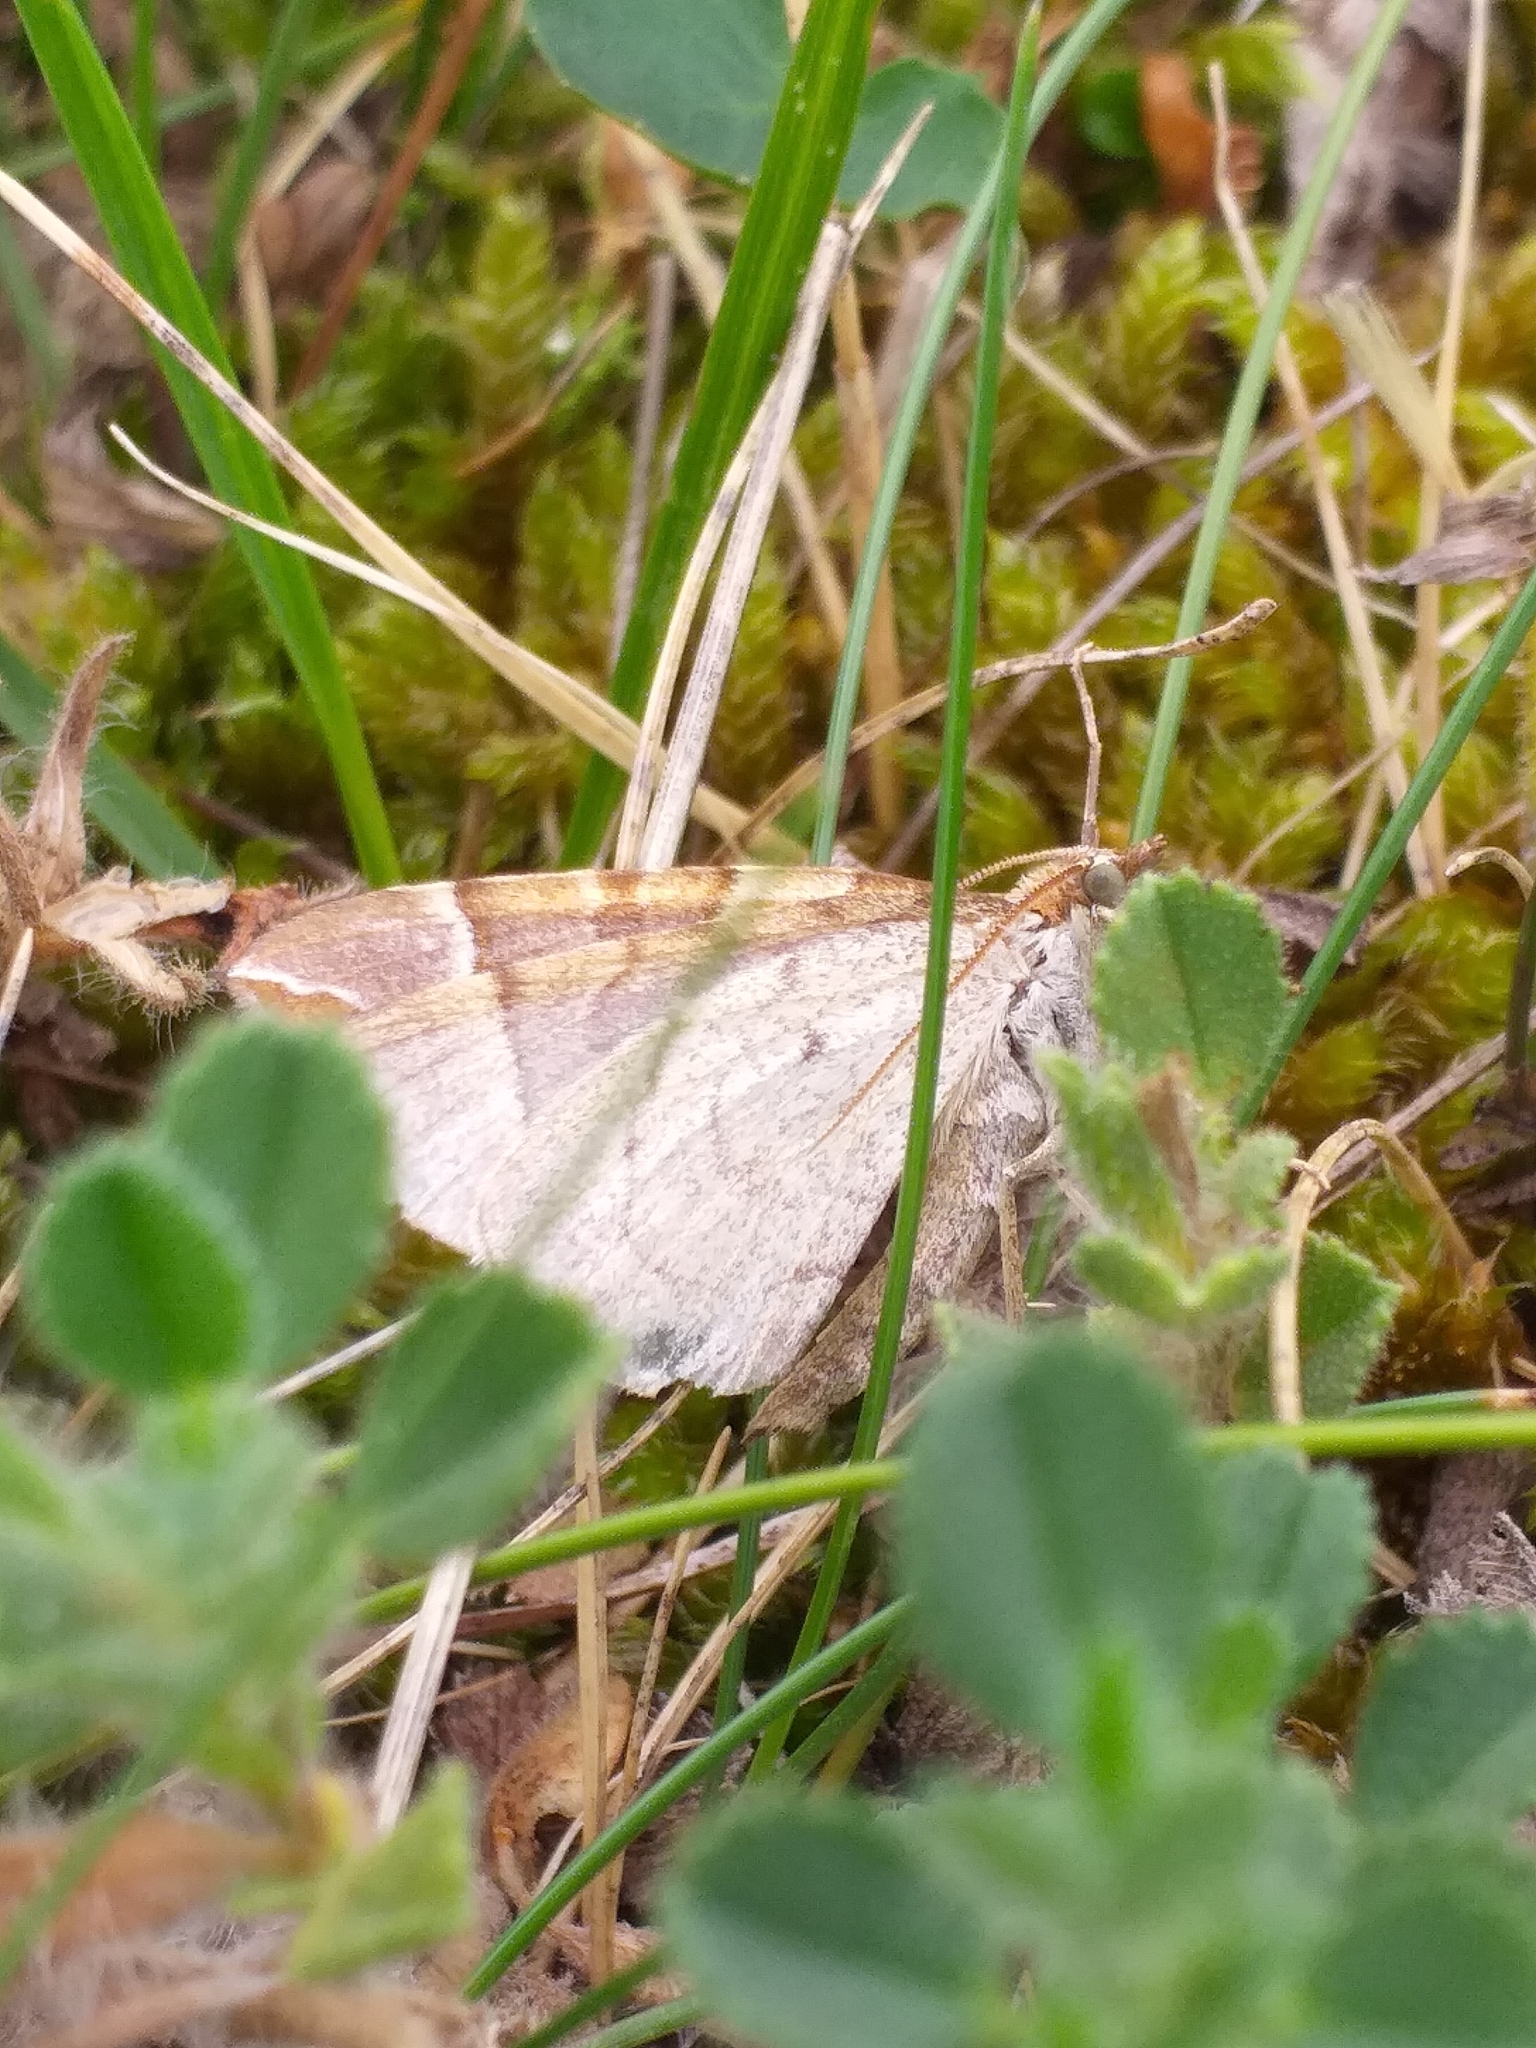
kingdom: Animalia
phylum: Arthropoda
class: Insecta
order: Lepidoptera
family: Geometridae
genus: Eulithis
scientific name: Eulithis testata
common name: Chevron
